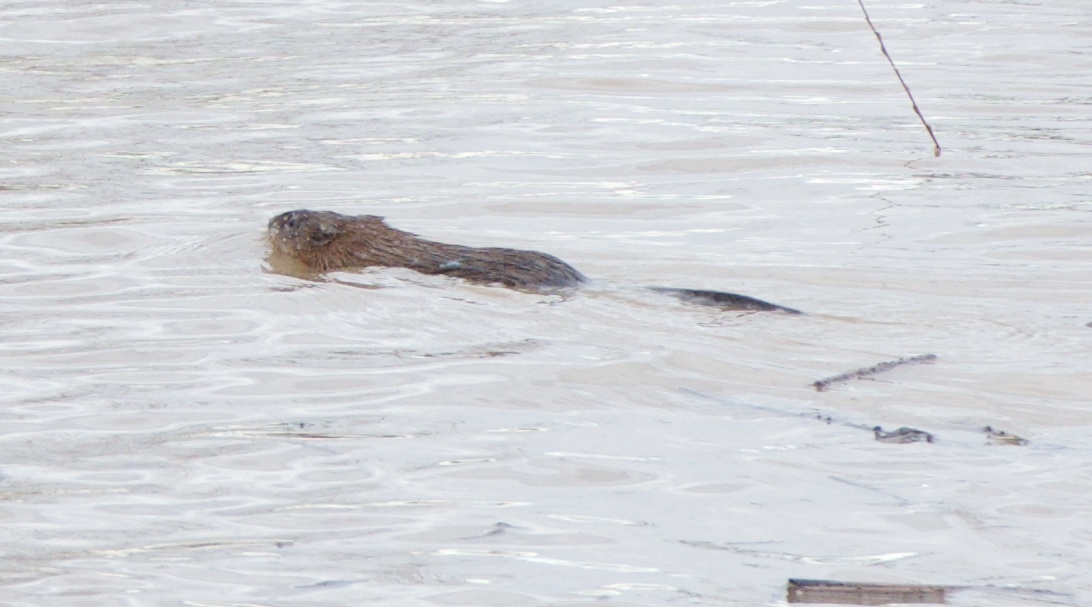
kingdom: Animalia
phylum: Chordata
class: Mammalia
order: Rodentia
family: Cricetidae
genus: Ondatra
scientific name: Ondatra zibethicus
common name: Muskrat
